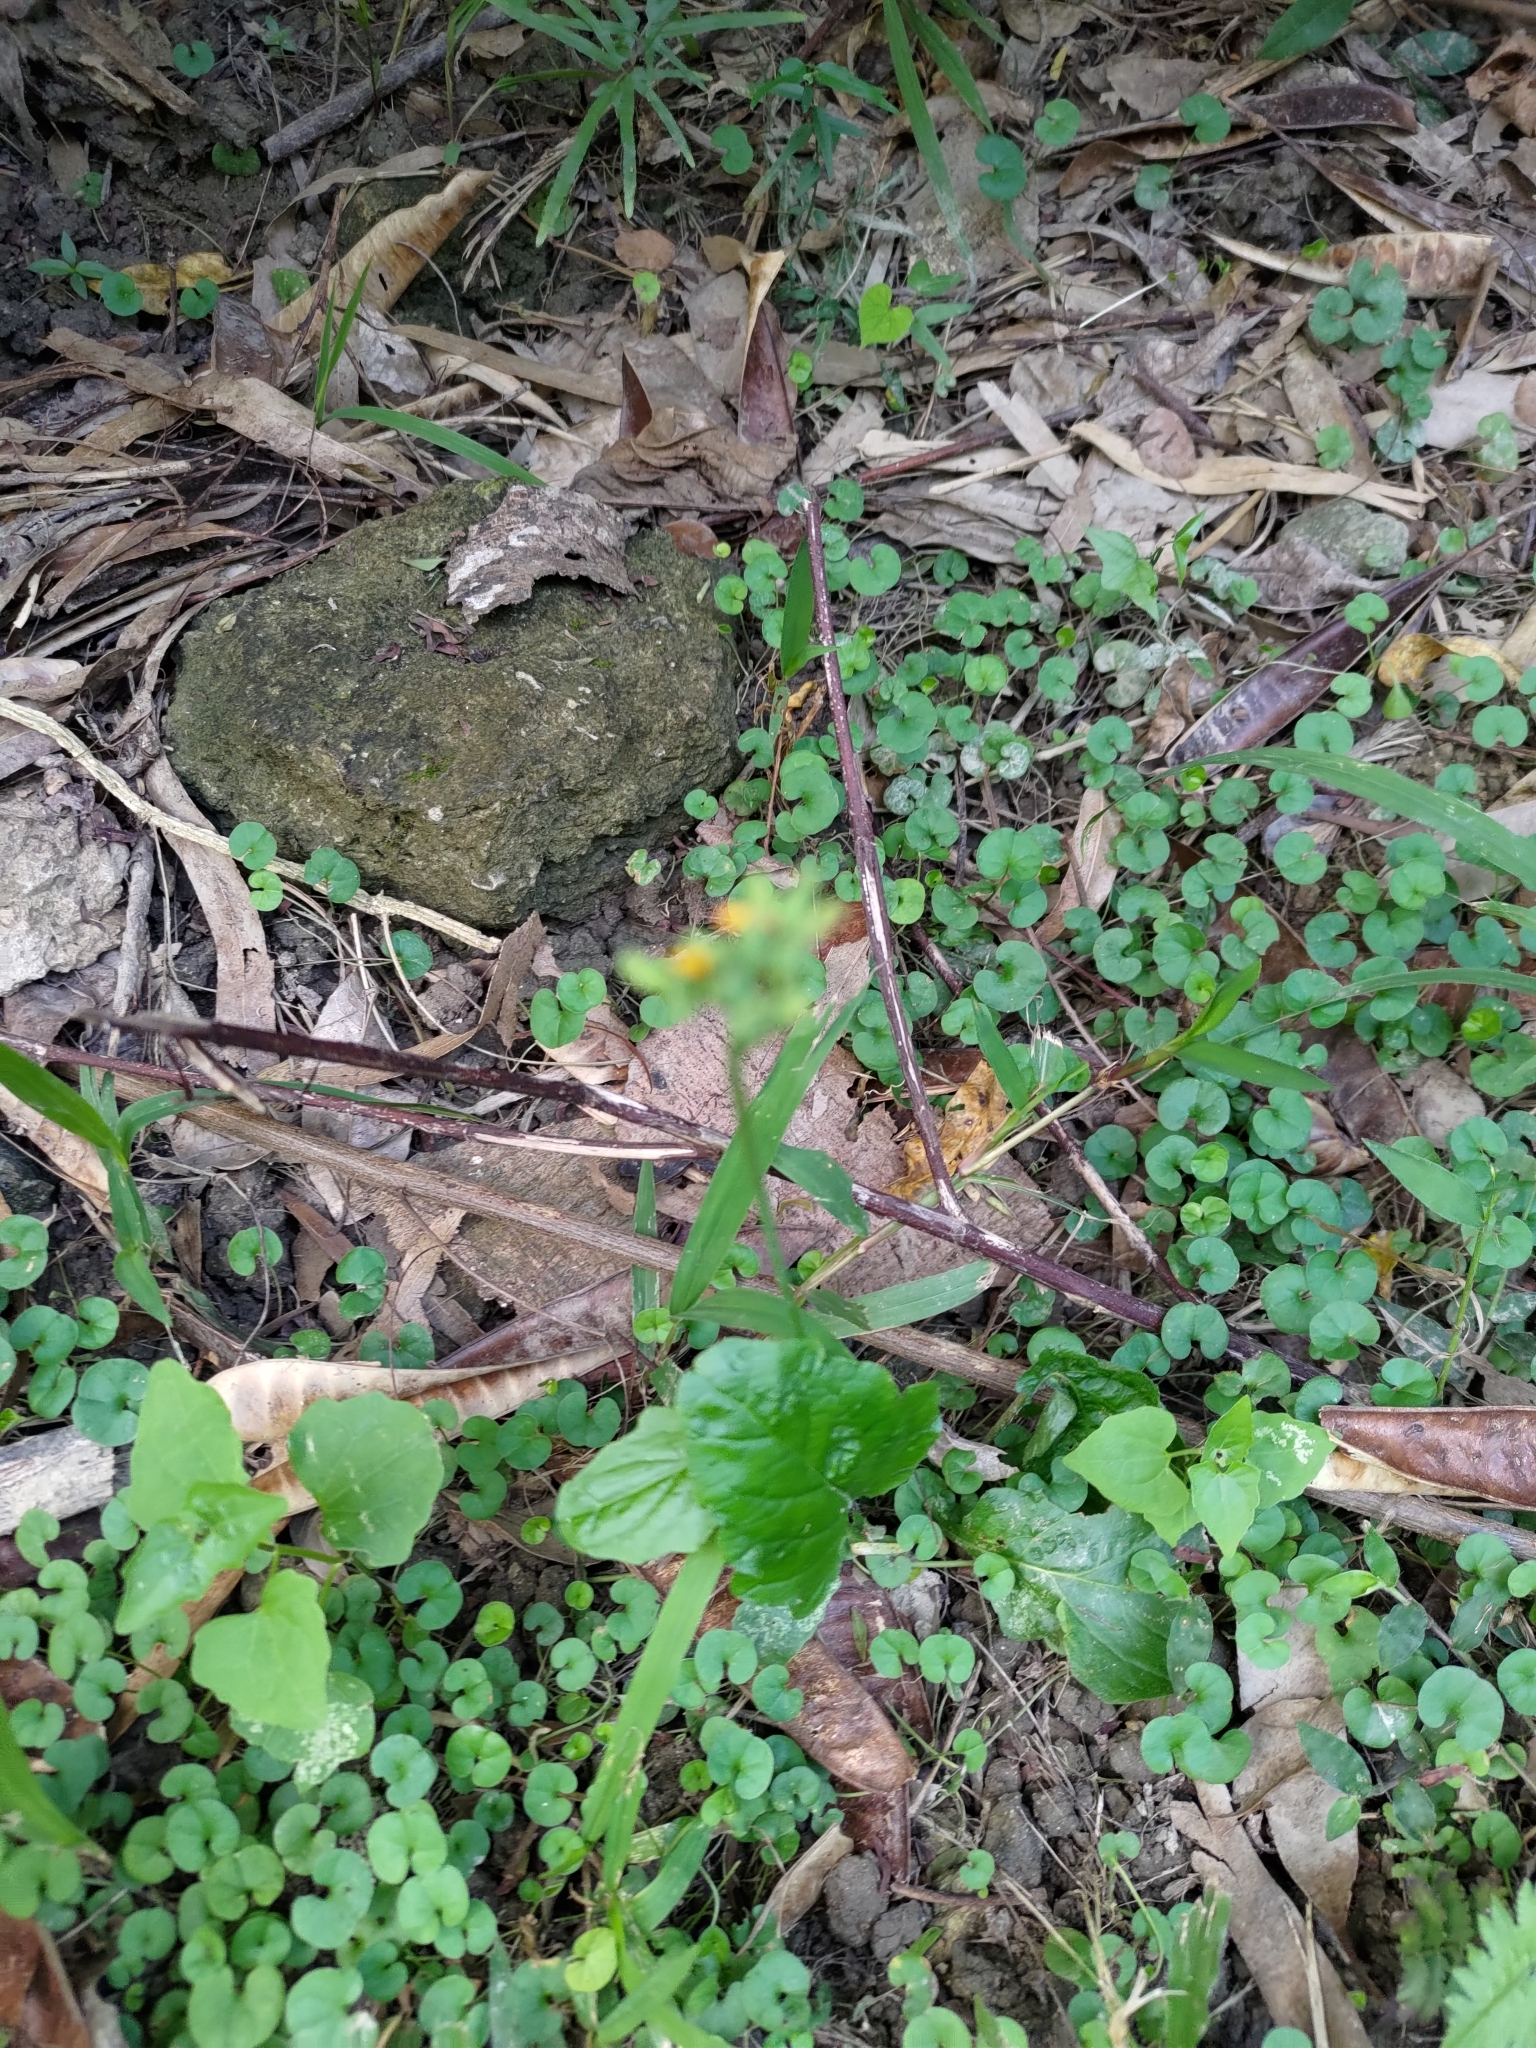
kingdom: Plantae
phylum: Tracheophyta
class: Magnoliopsida
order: Asterales
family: Asteraceae
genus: Youngia
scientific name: Youngia japonica
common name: Oriental false hawksbeard
